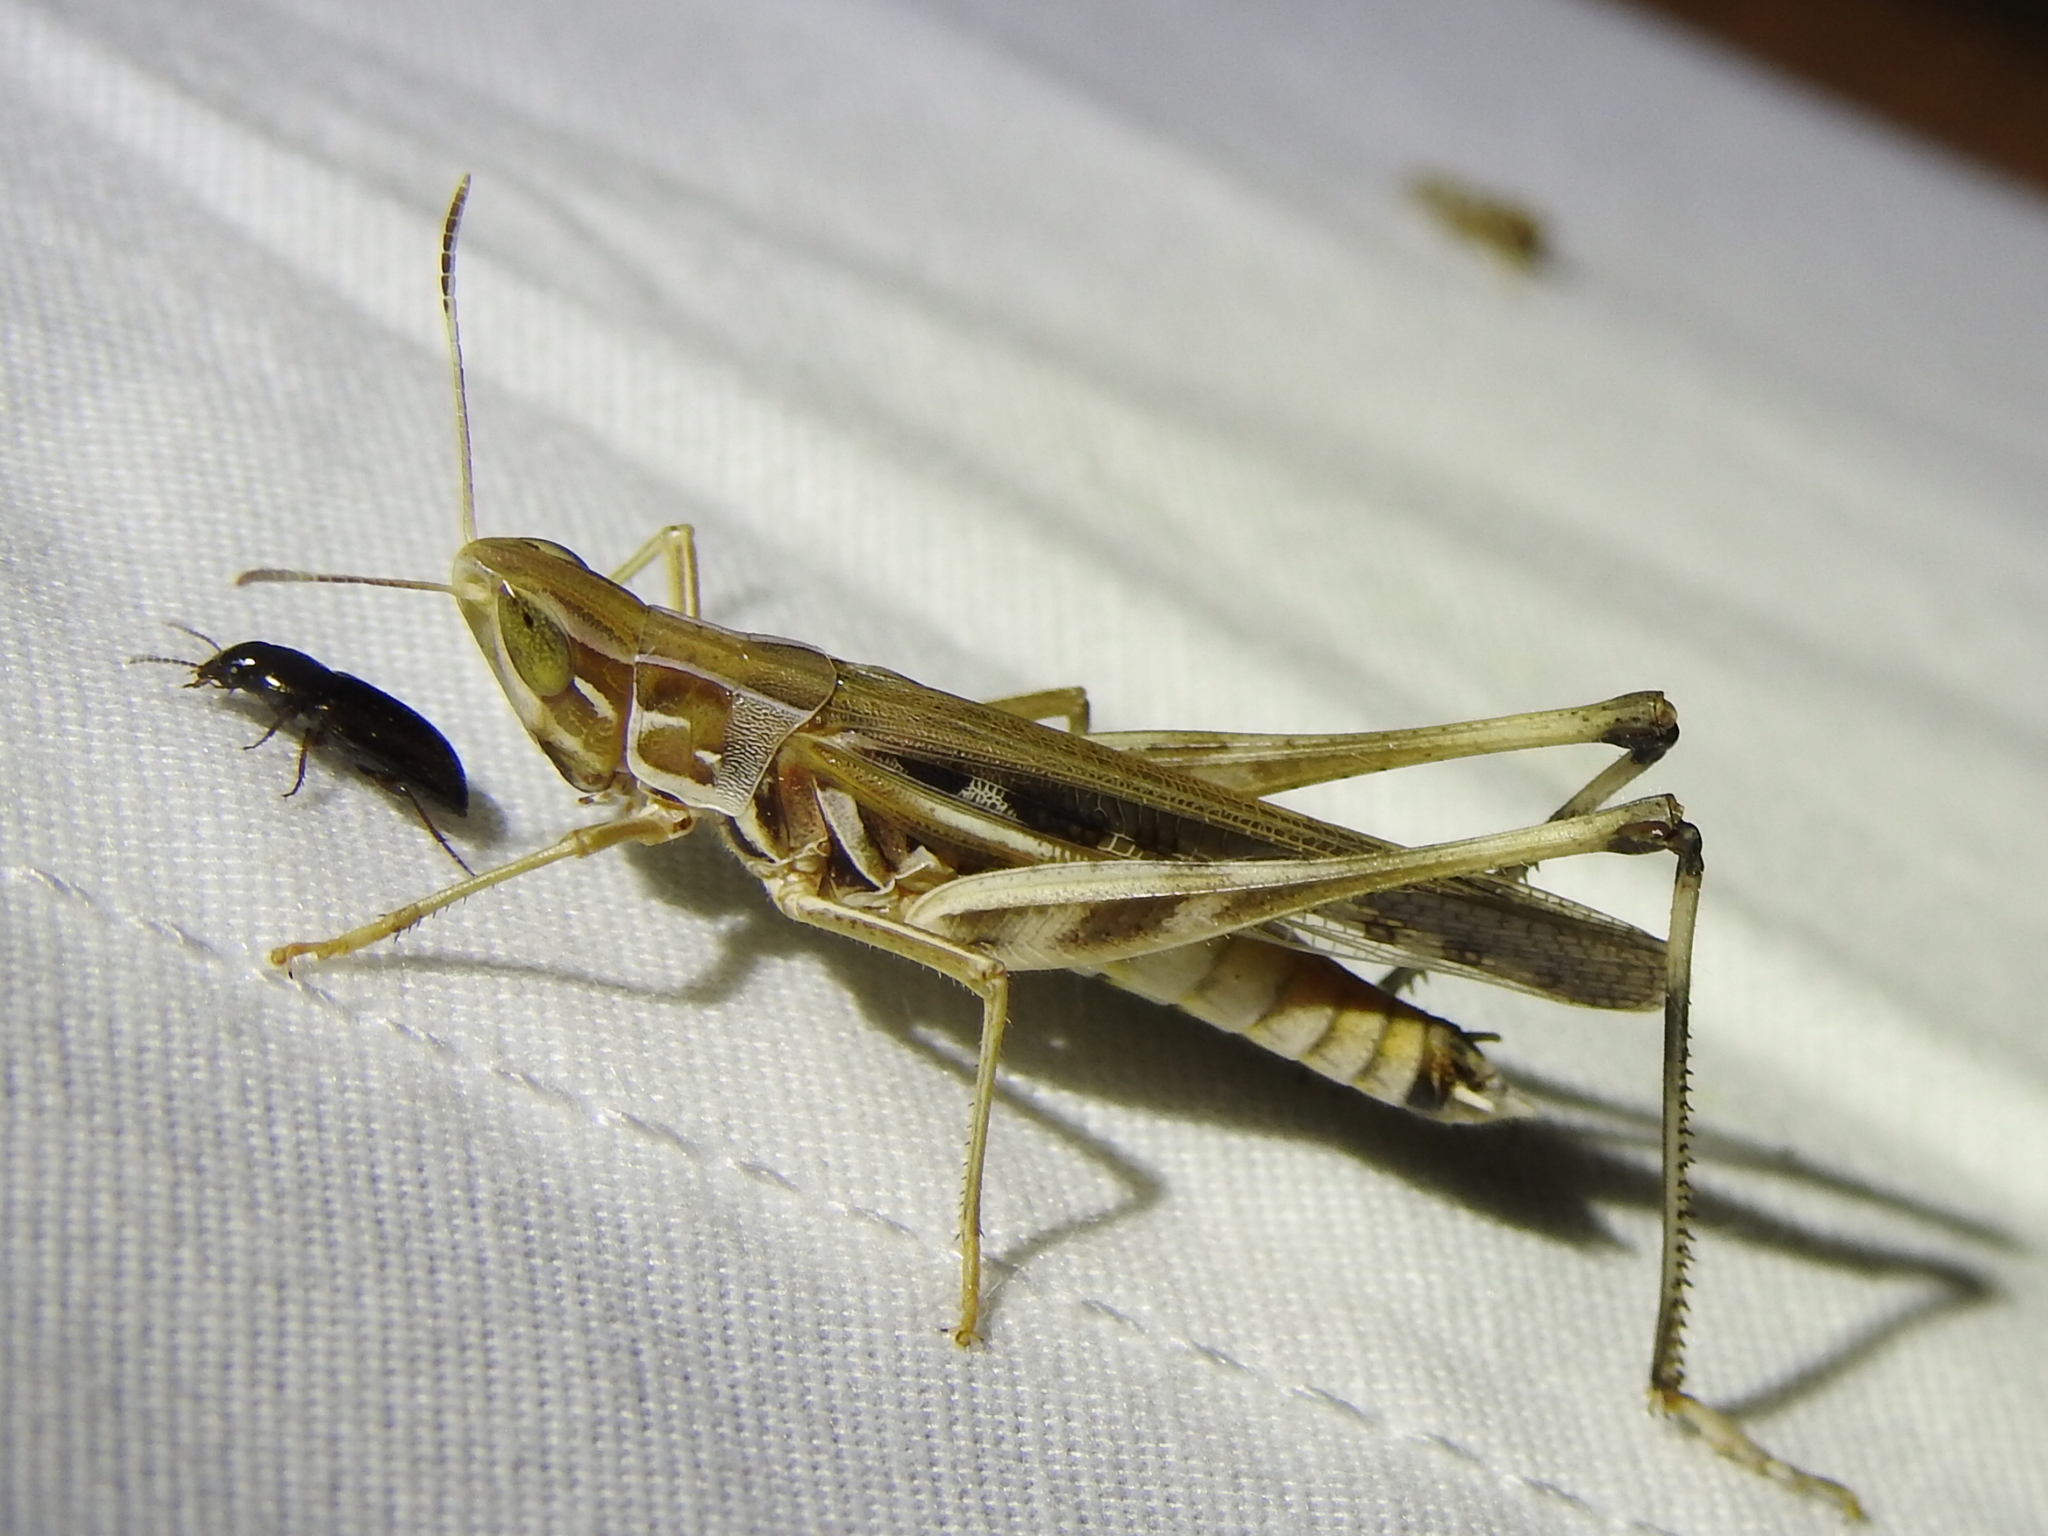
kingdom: Animalia
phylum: Arthropoda
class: Insecta
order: Orthoptera
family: Acrididae
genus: Syrbula
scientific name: Syrbula admirabilis
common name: Handsome grasshopper
